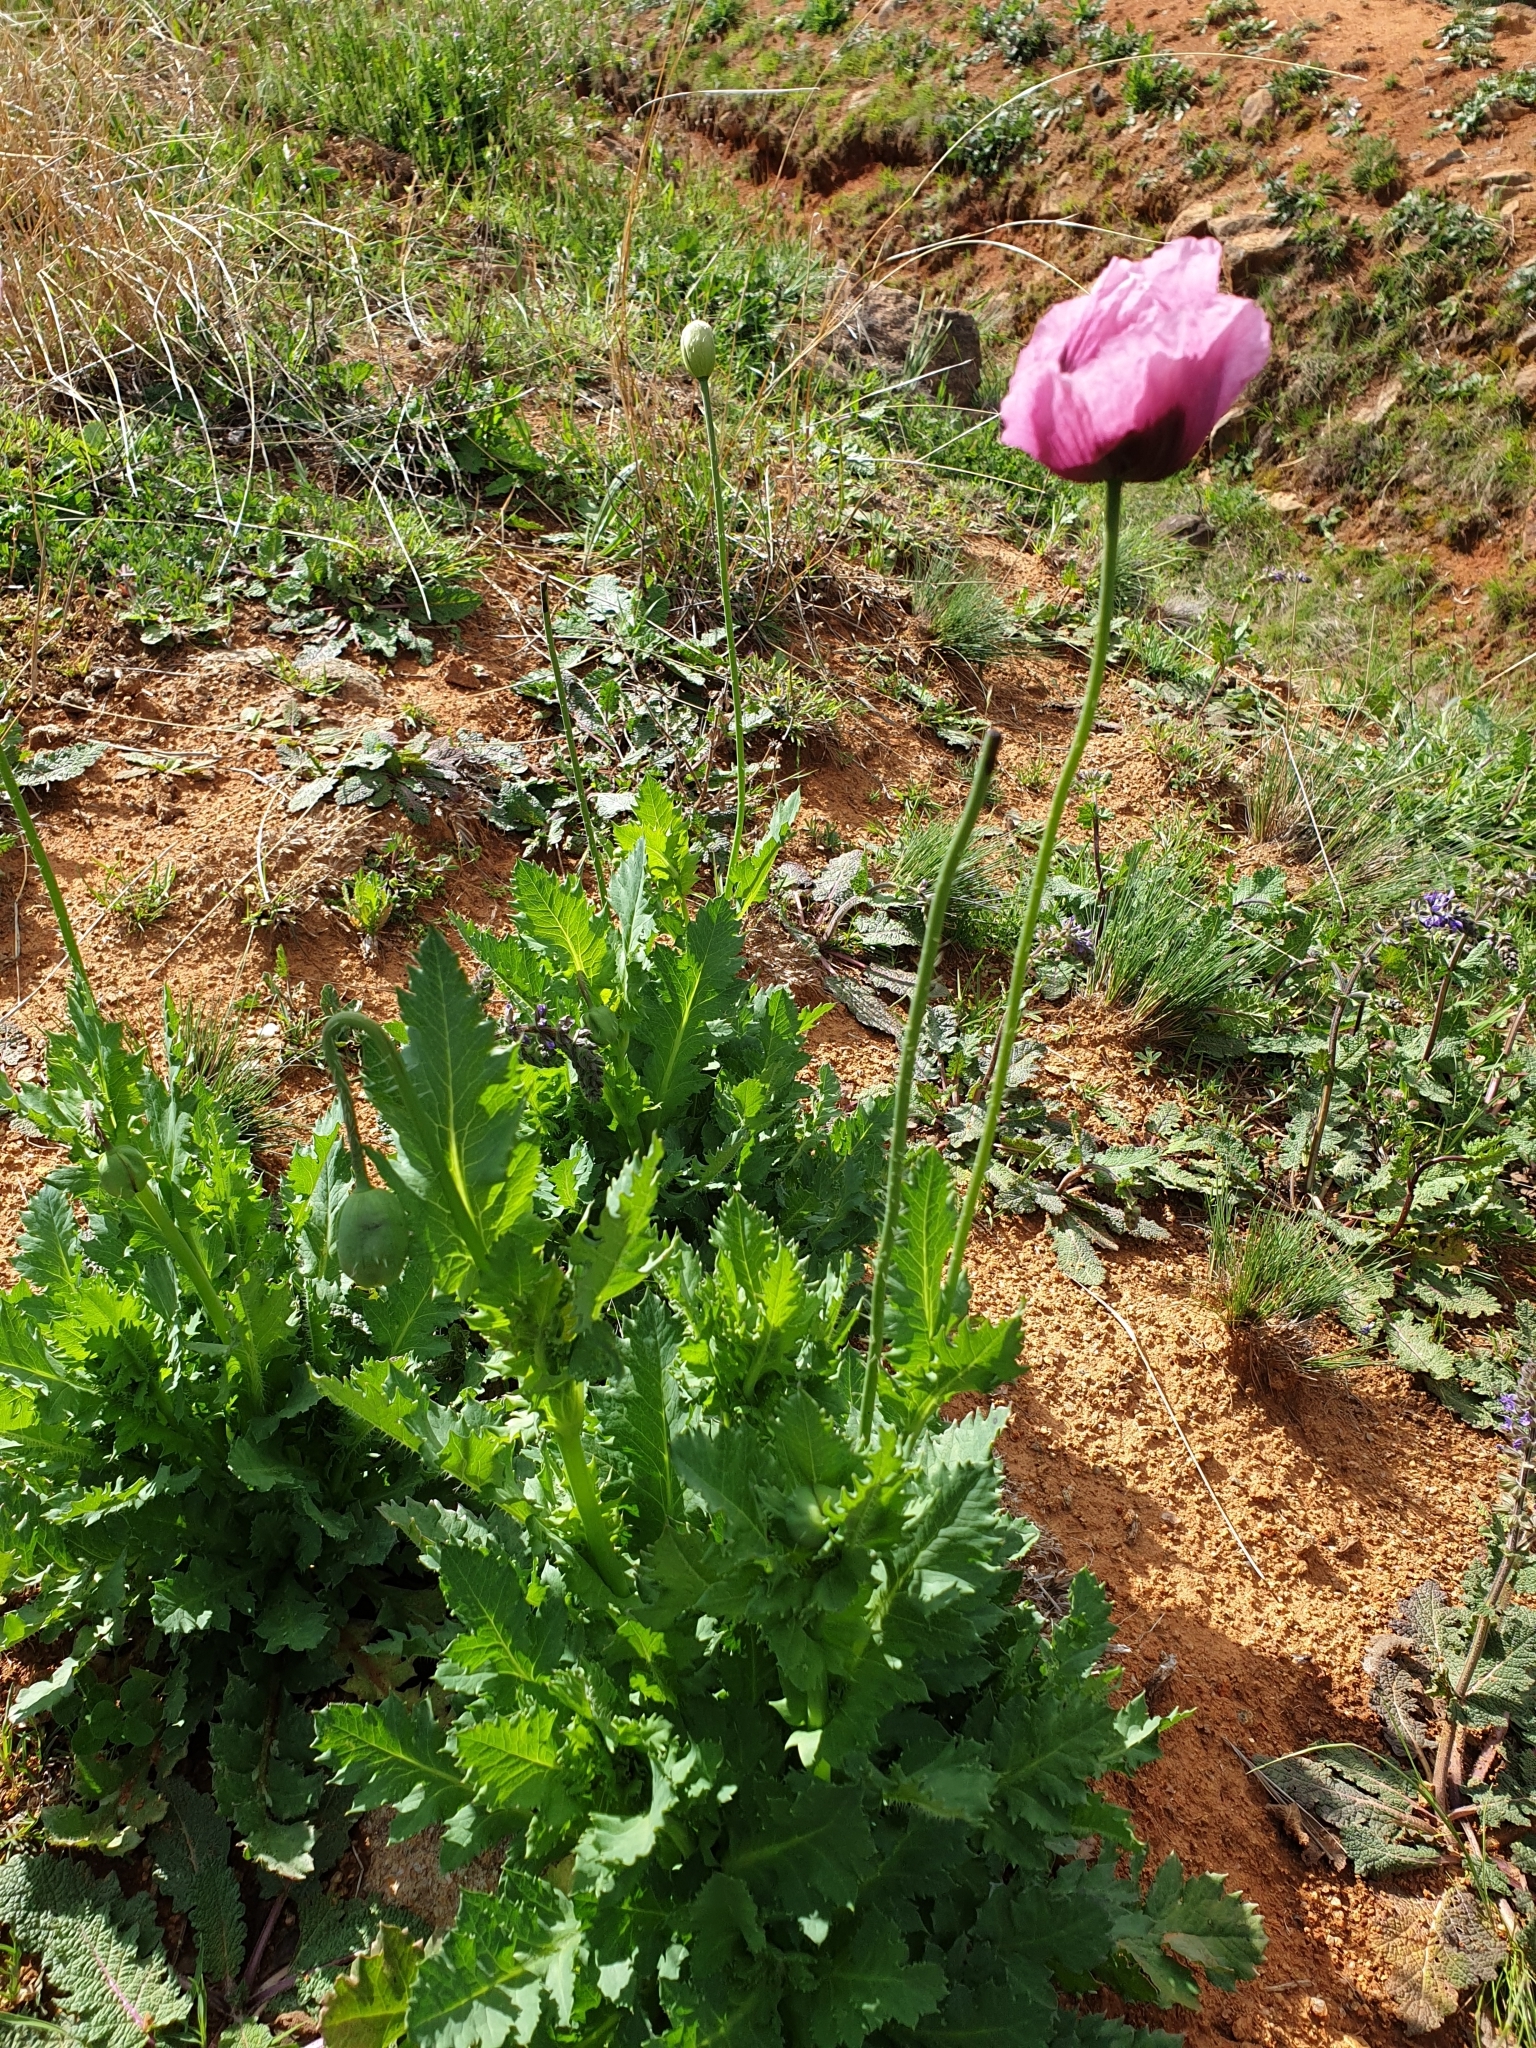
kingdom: Plantae
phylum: Tracheophyta
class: Magnoliopsida
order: Ranunculales
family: Papaveraceae
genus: Papaver
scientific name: Papaver somniferum
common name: Opium poppy
